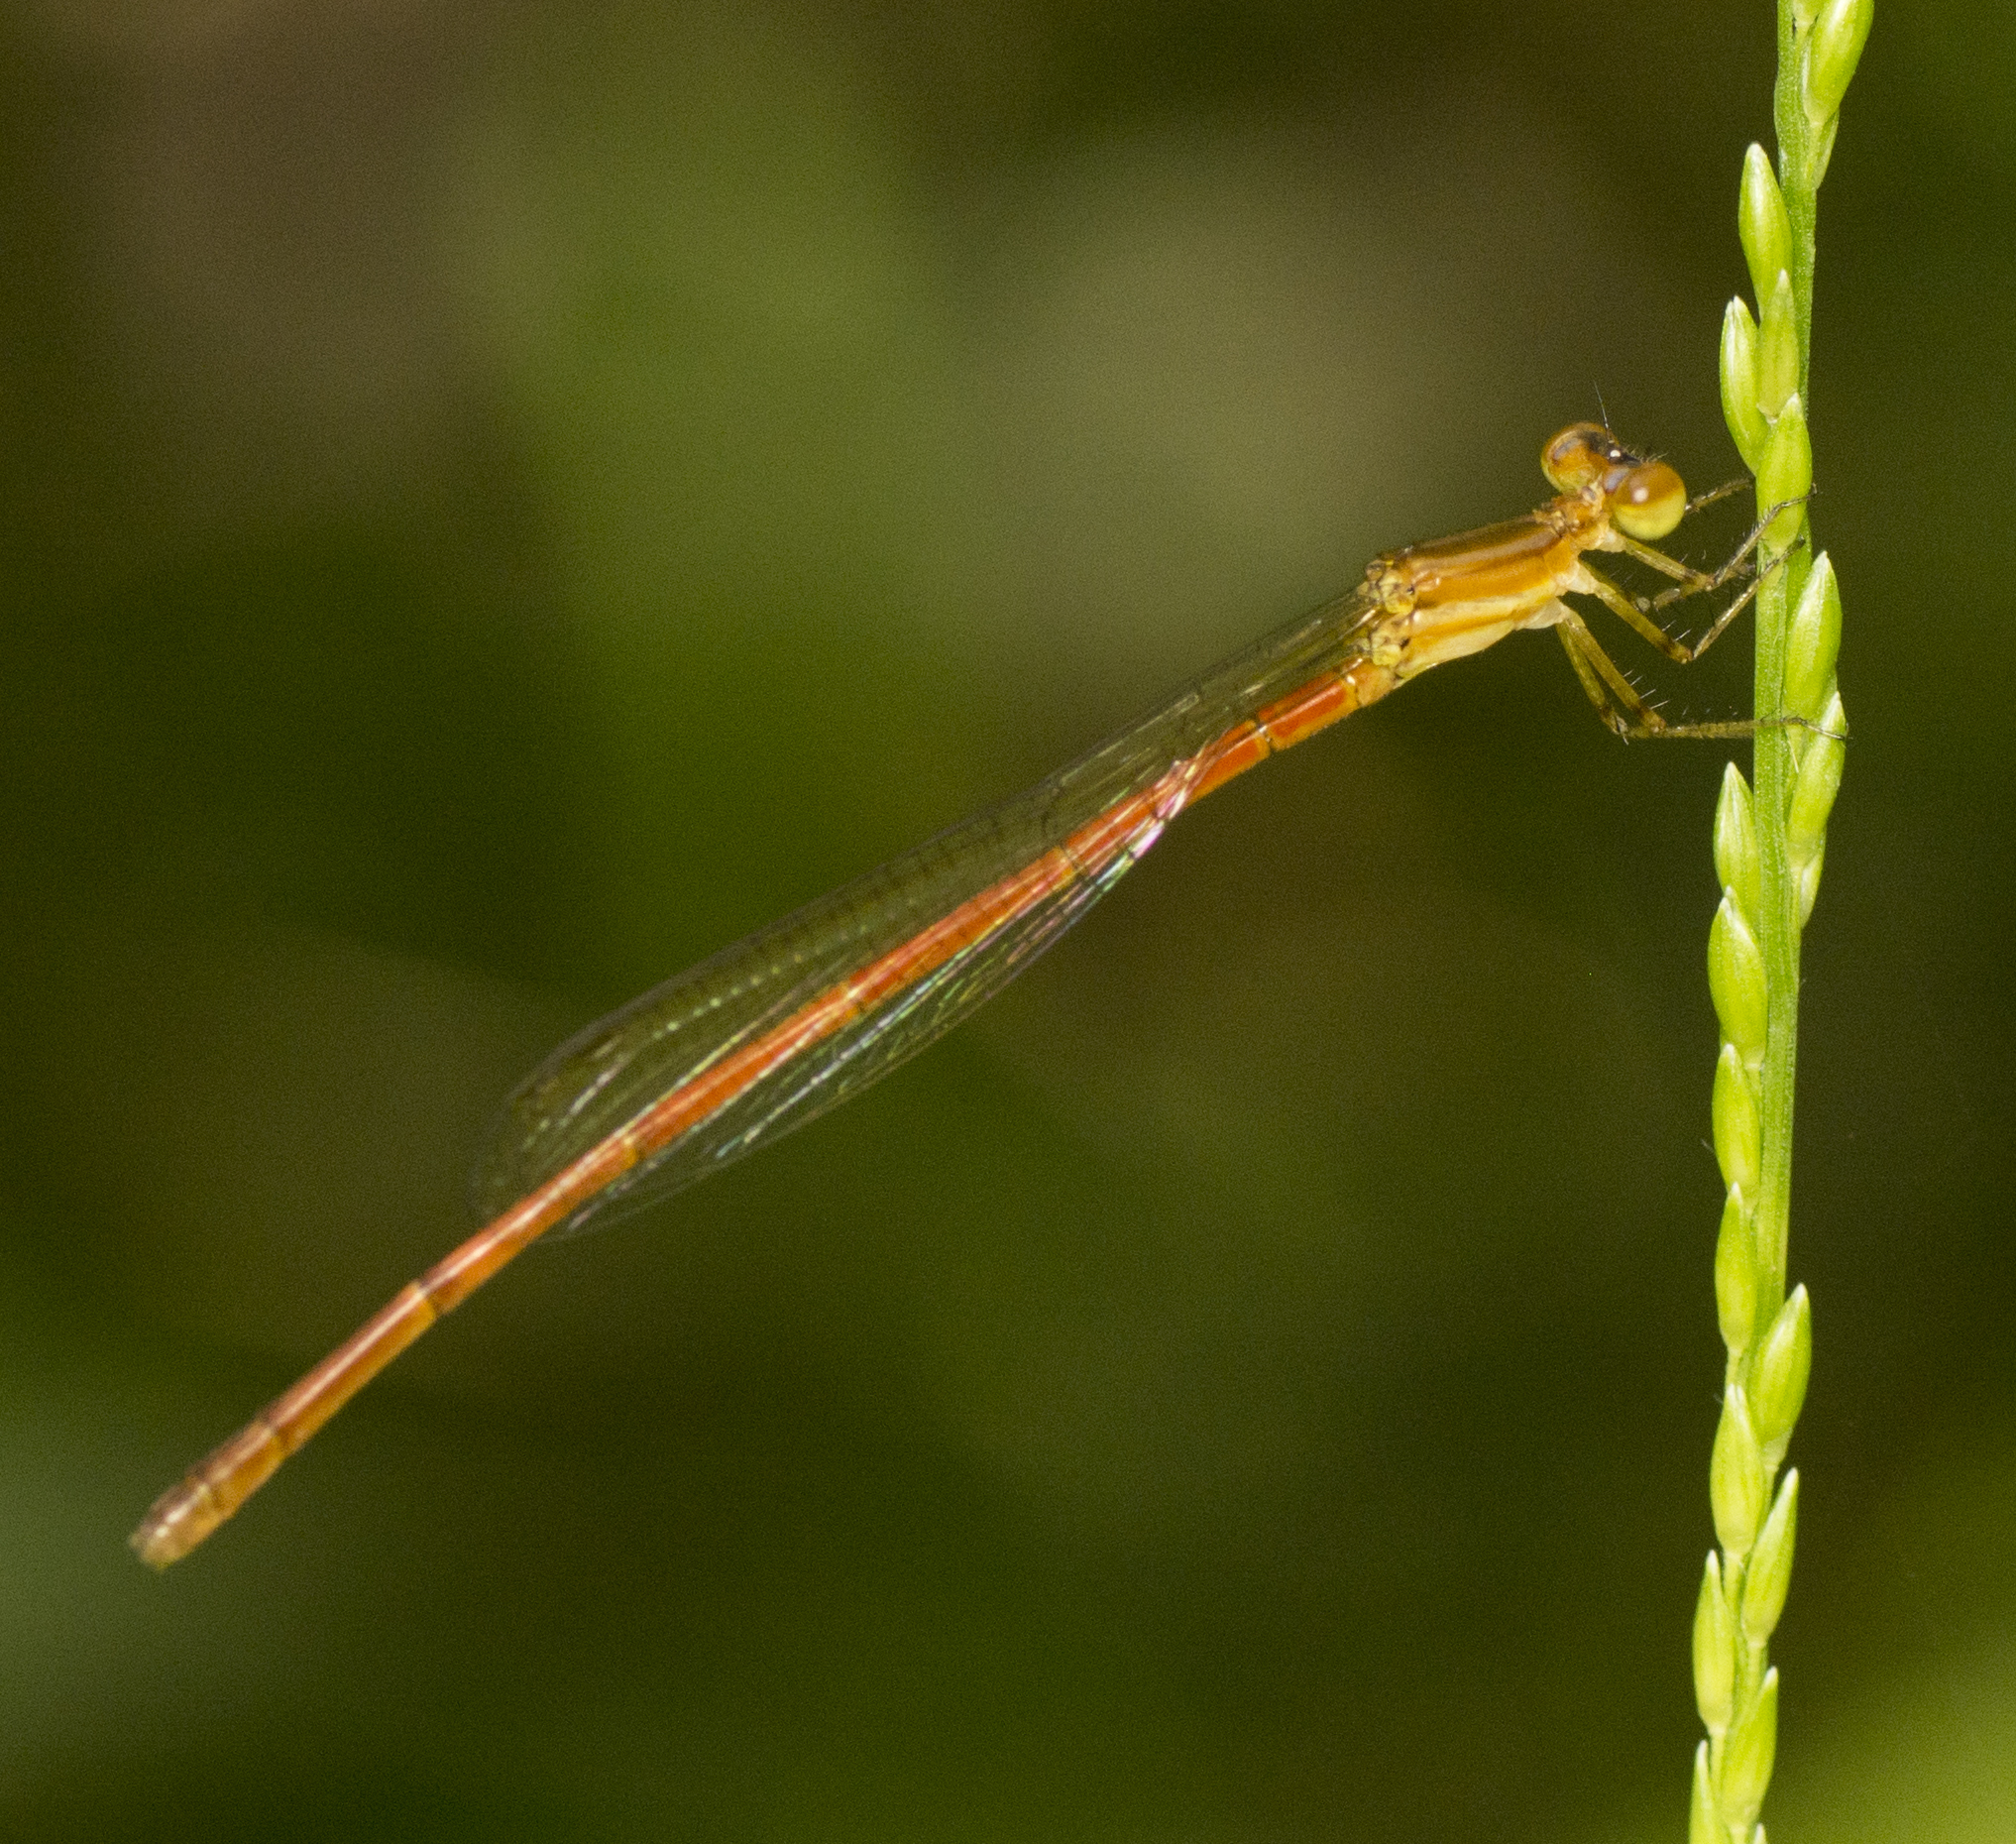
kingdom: Animalia
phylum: Arthropoda
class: Insecta
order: Odonata
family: Coenagrionidae
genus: Argiocnemis
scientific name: Argiocnemis rubescens
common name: Red-tipped shadefly
